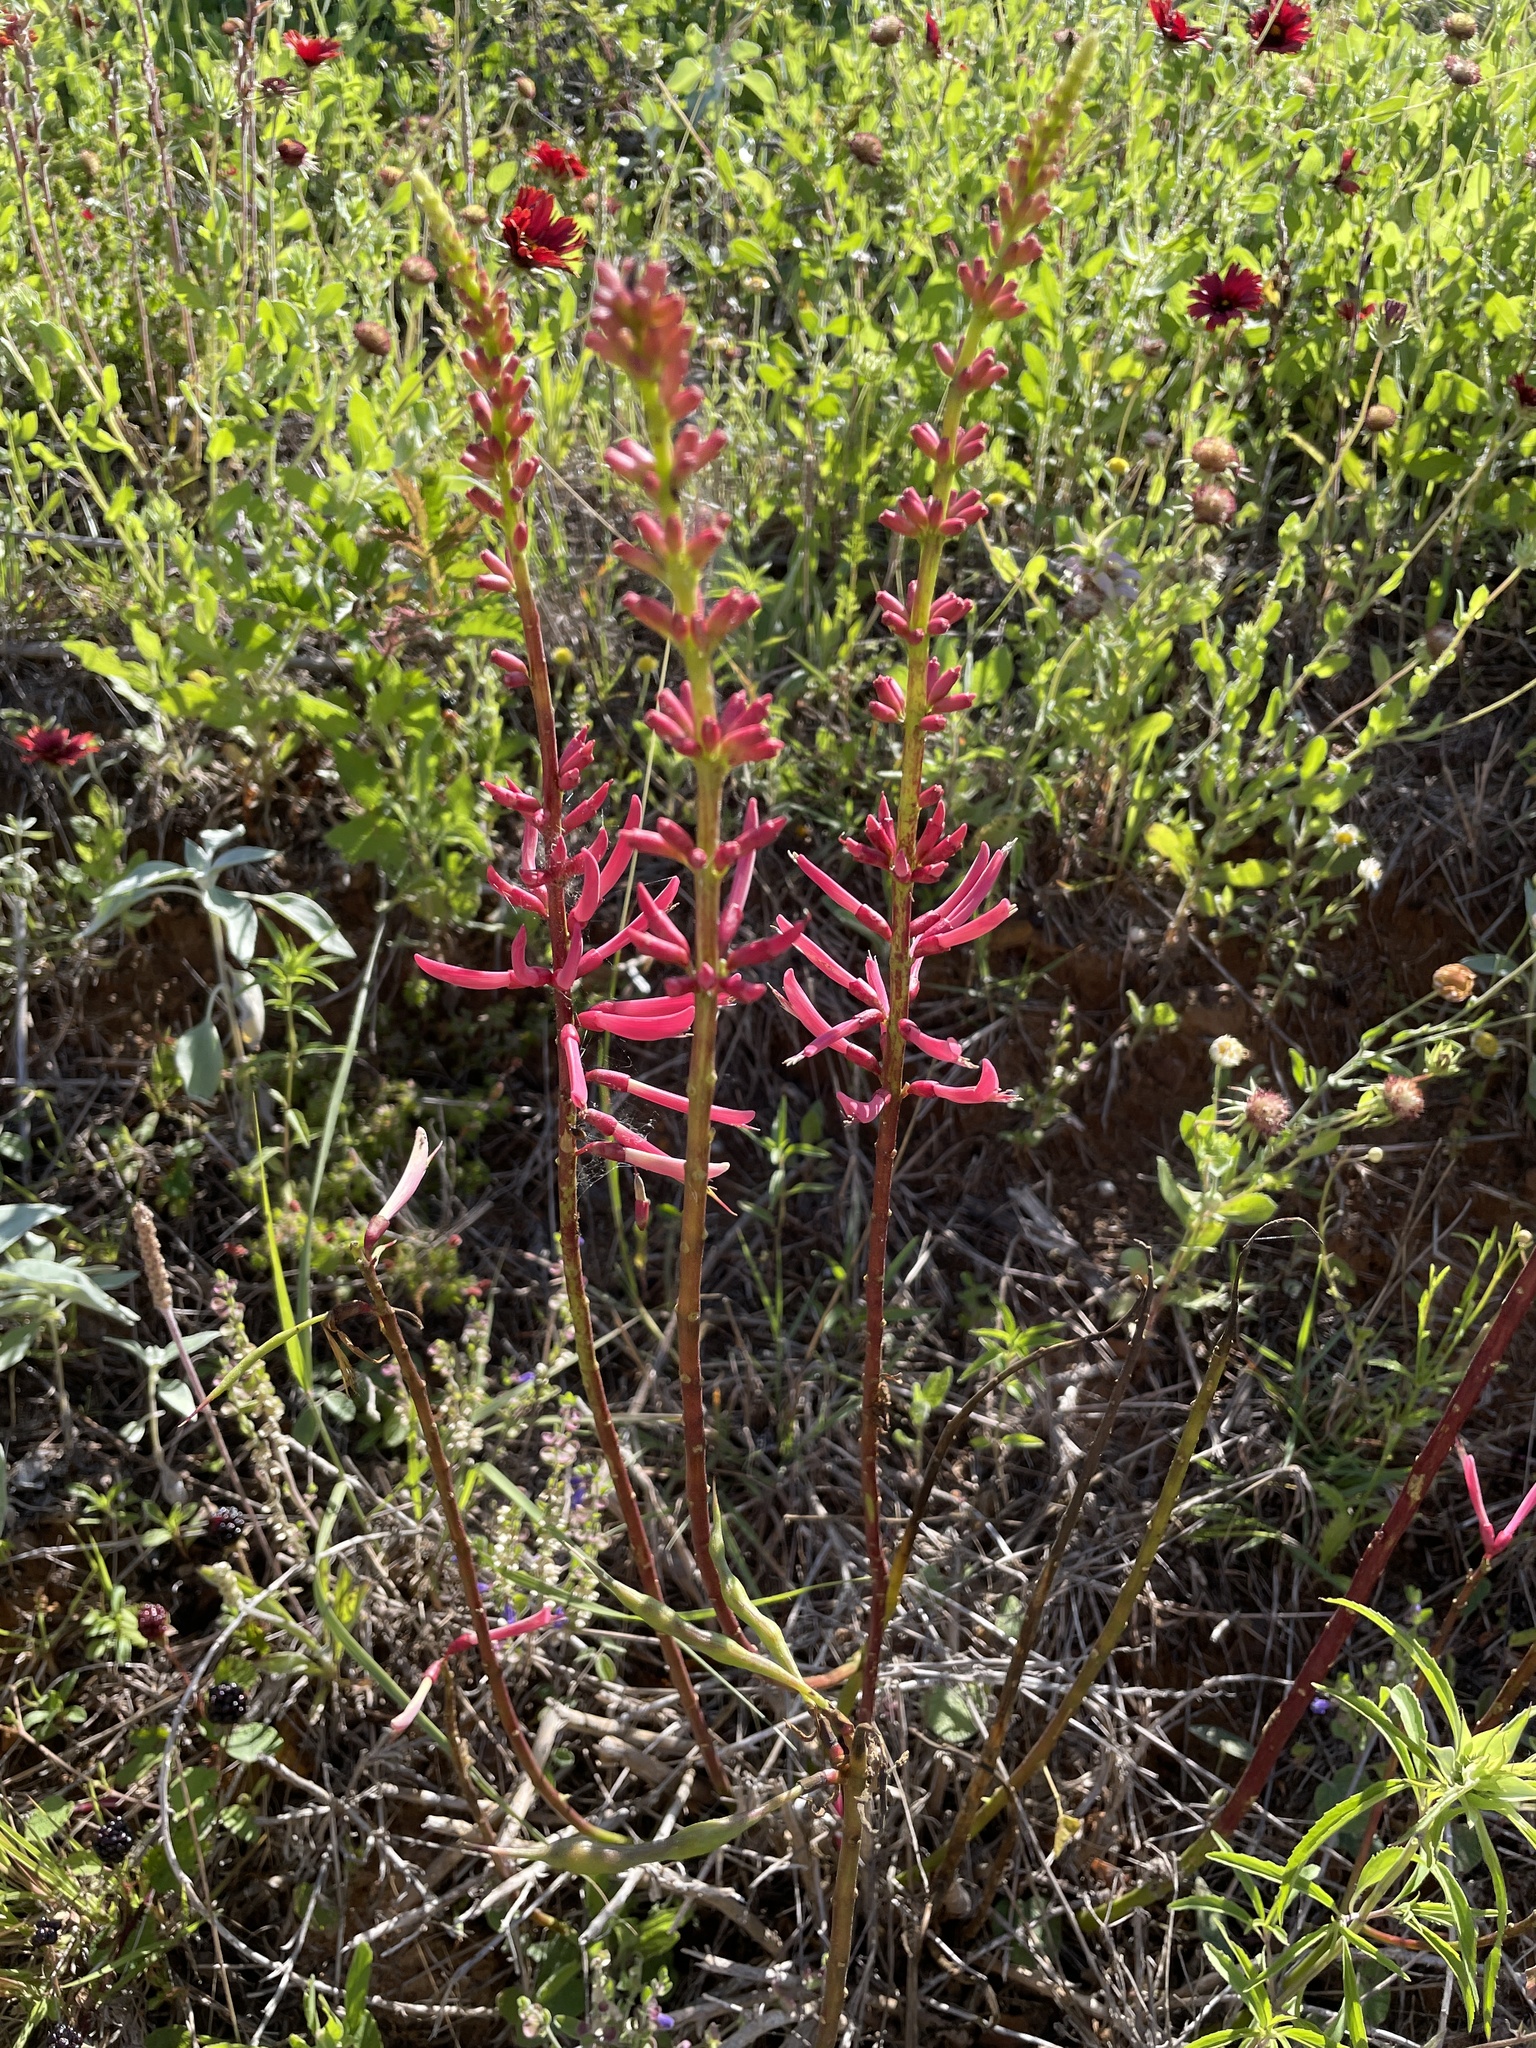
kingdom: Plantae
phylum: Tracheophyta
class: Magnoliopsida
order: Fabales
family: Fabaceae
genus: Erythrina
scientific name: Erythrina herbacea
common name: Coral-bean
